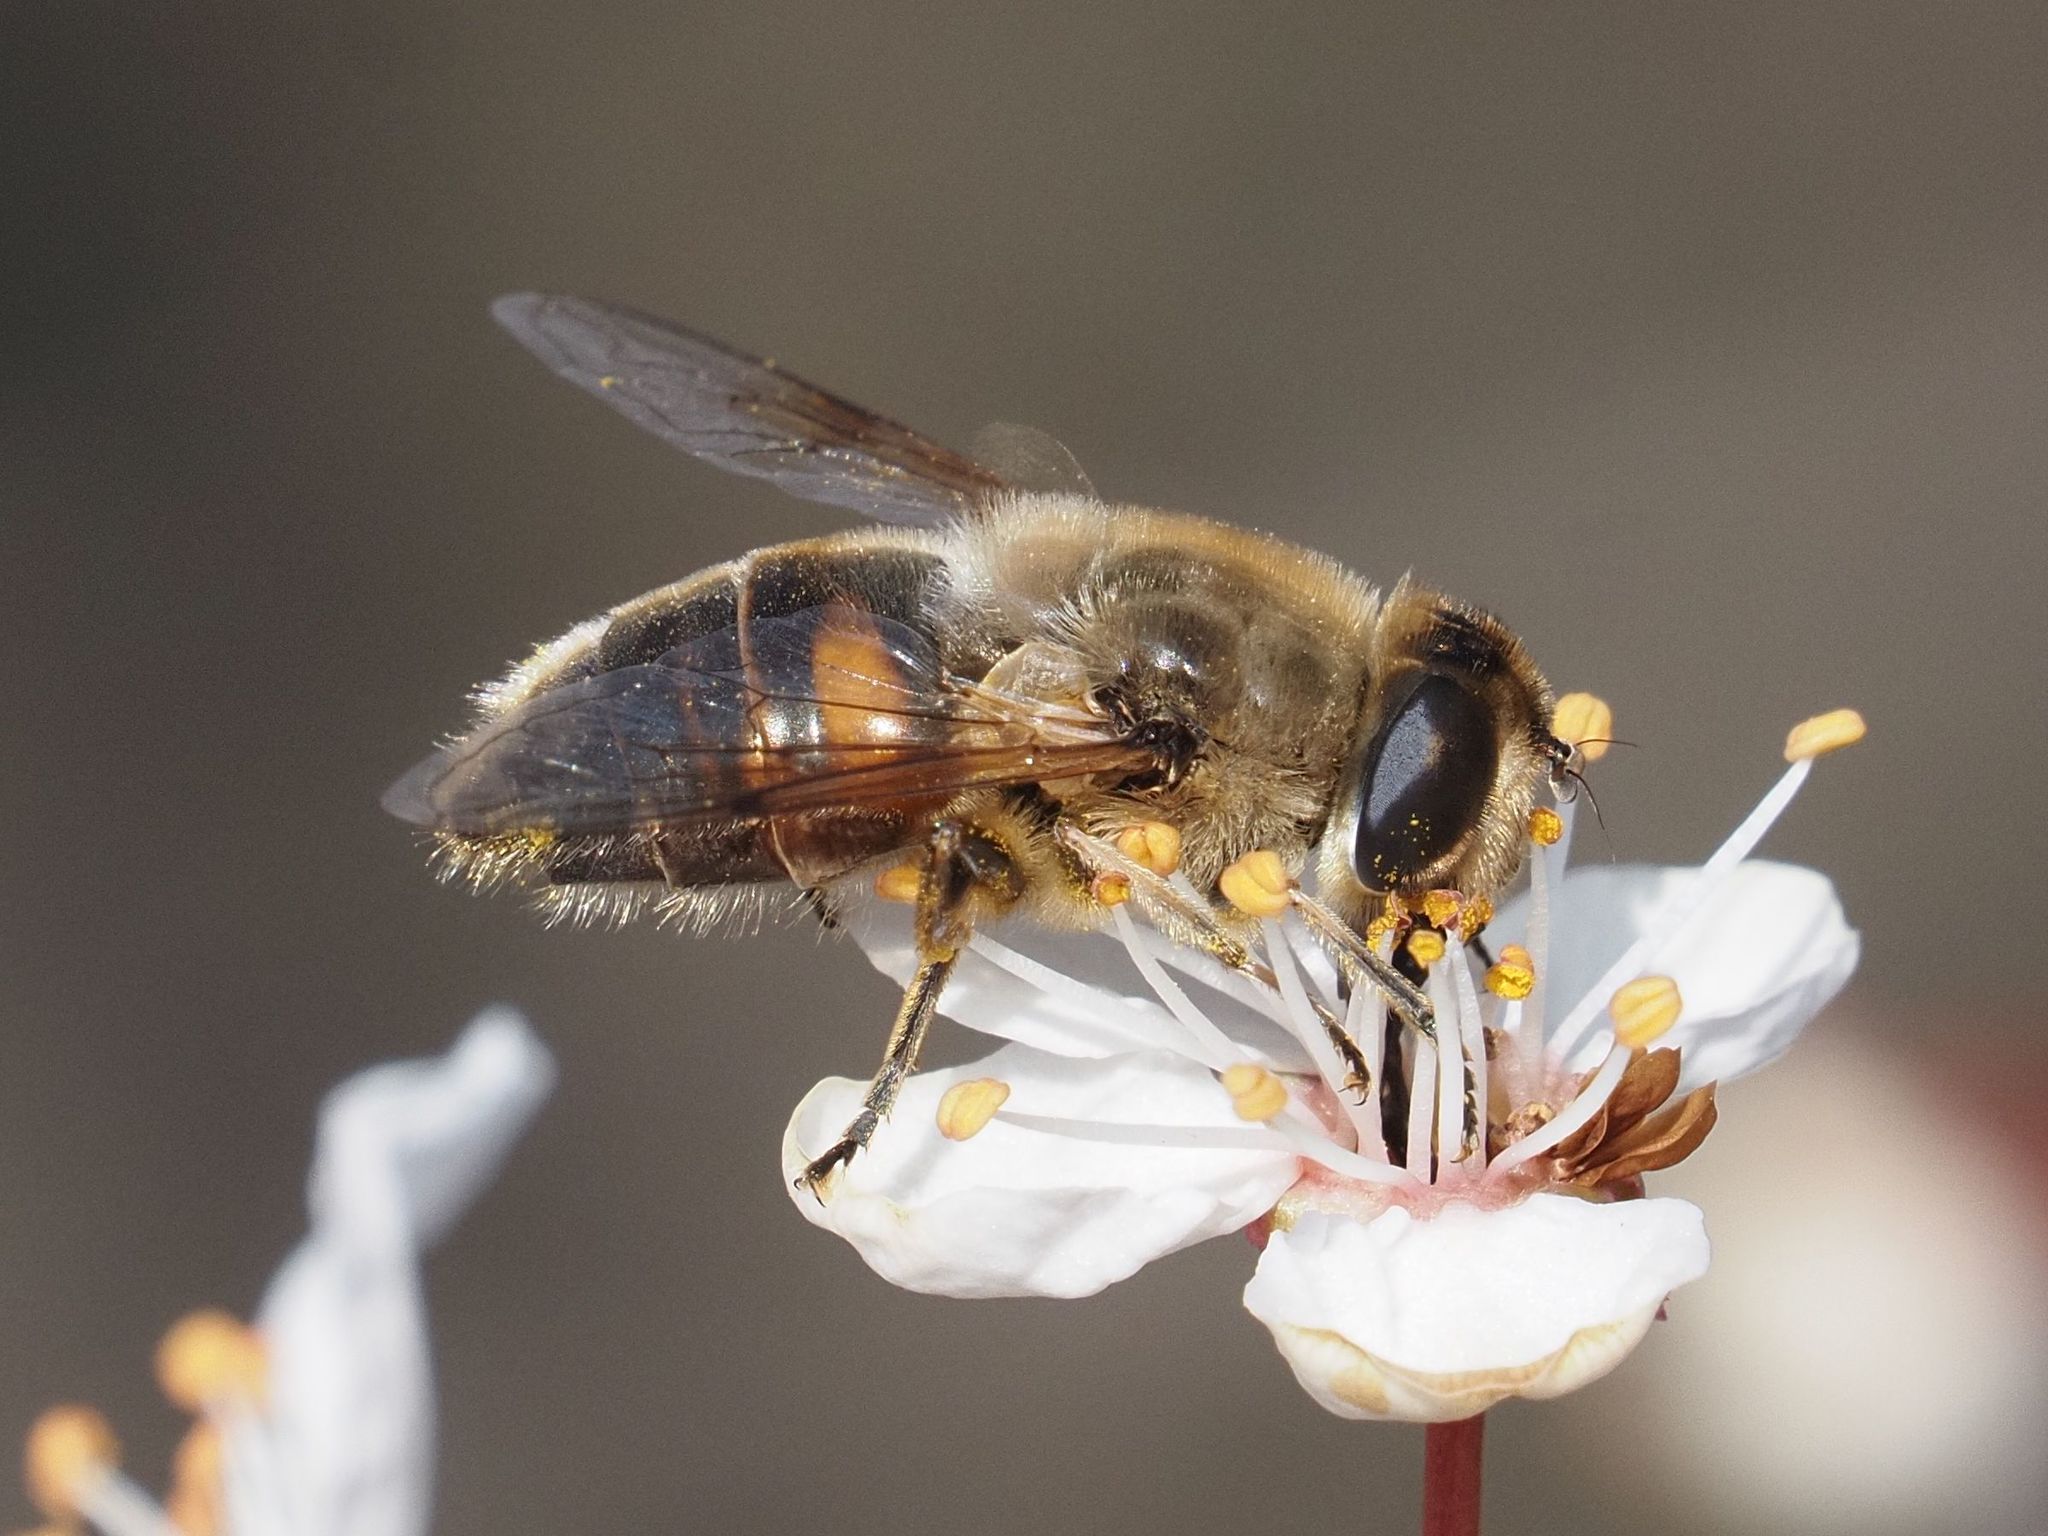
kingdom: Animalia
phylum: Arthropoda
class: Insecta
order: Diptera
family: Syrphidae
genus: Eristalis
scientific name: Eristalis tenax
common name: Drone fly
